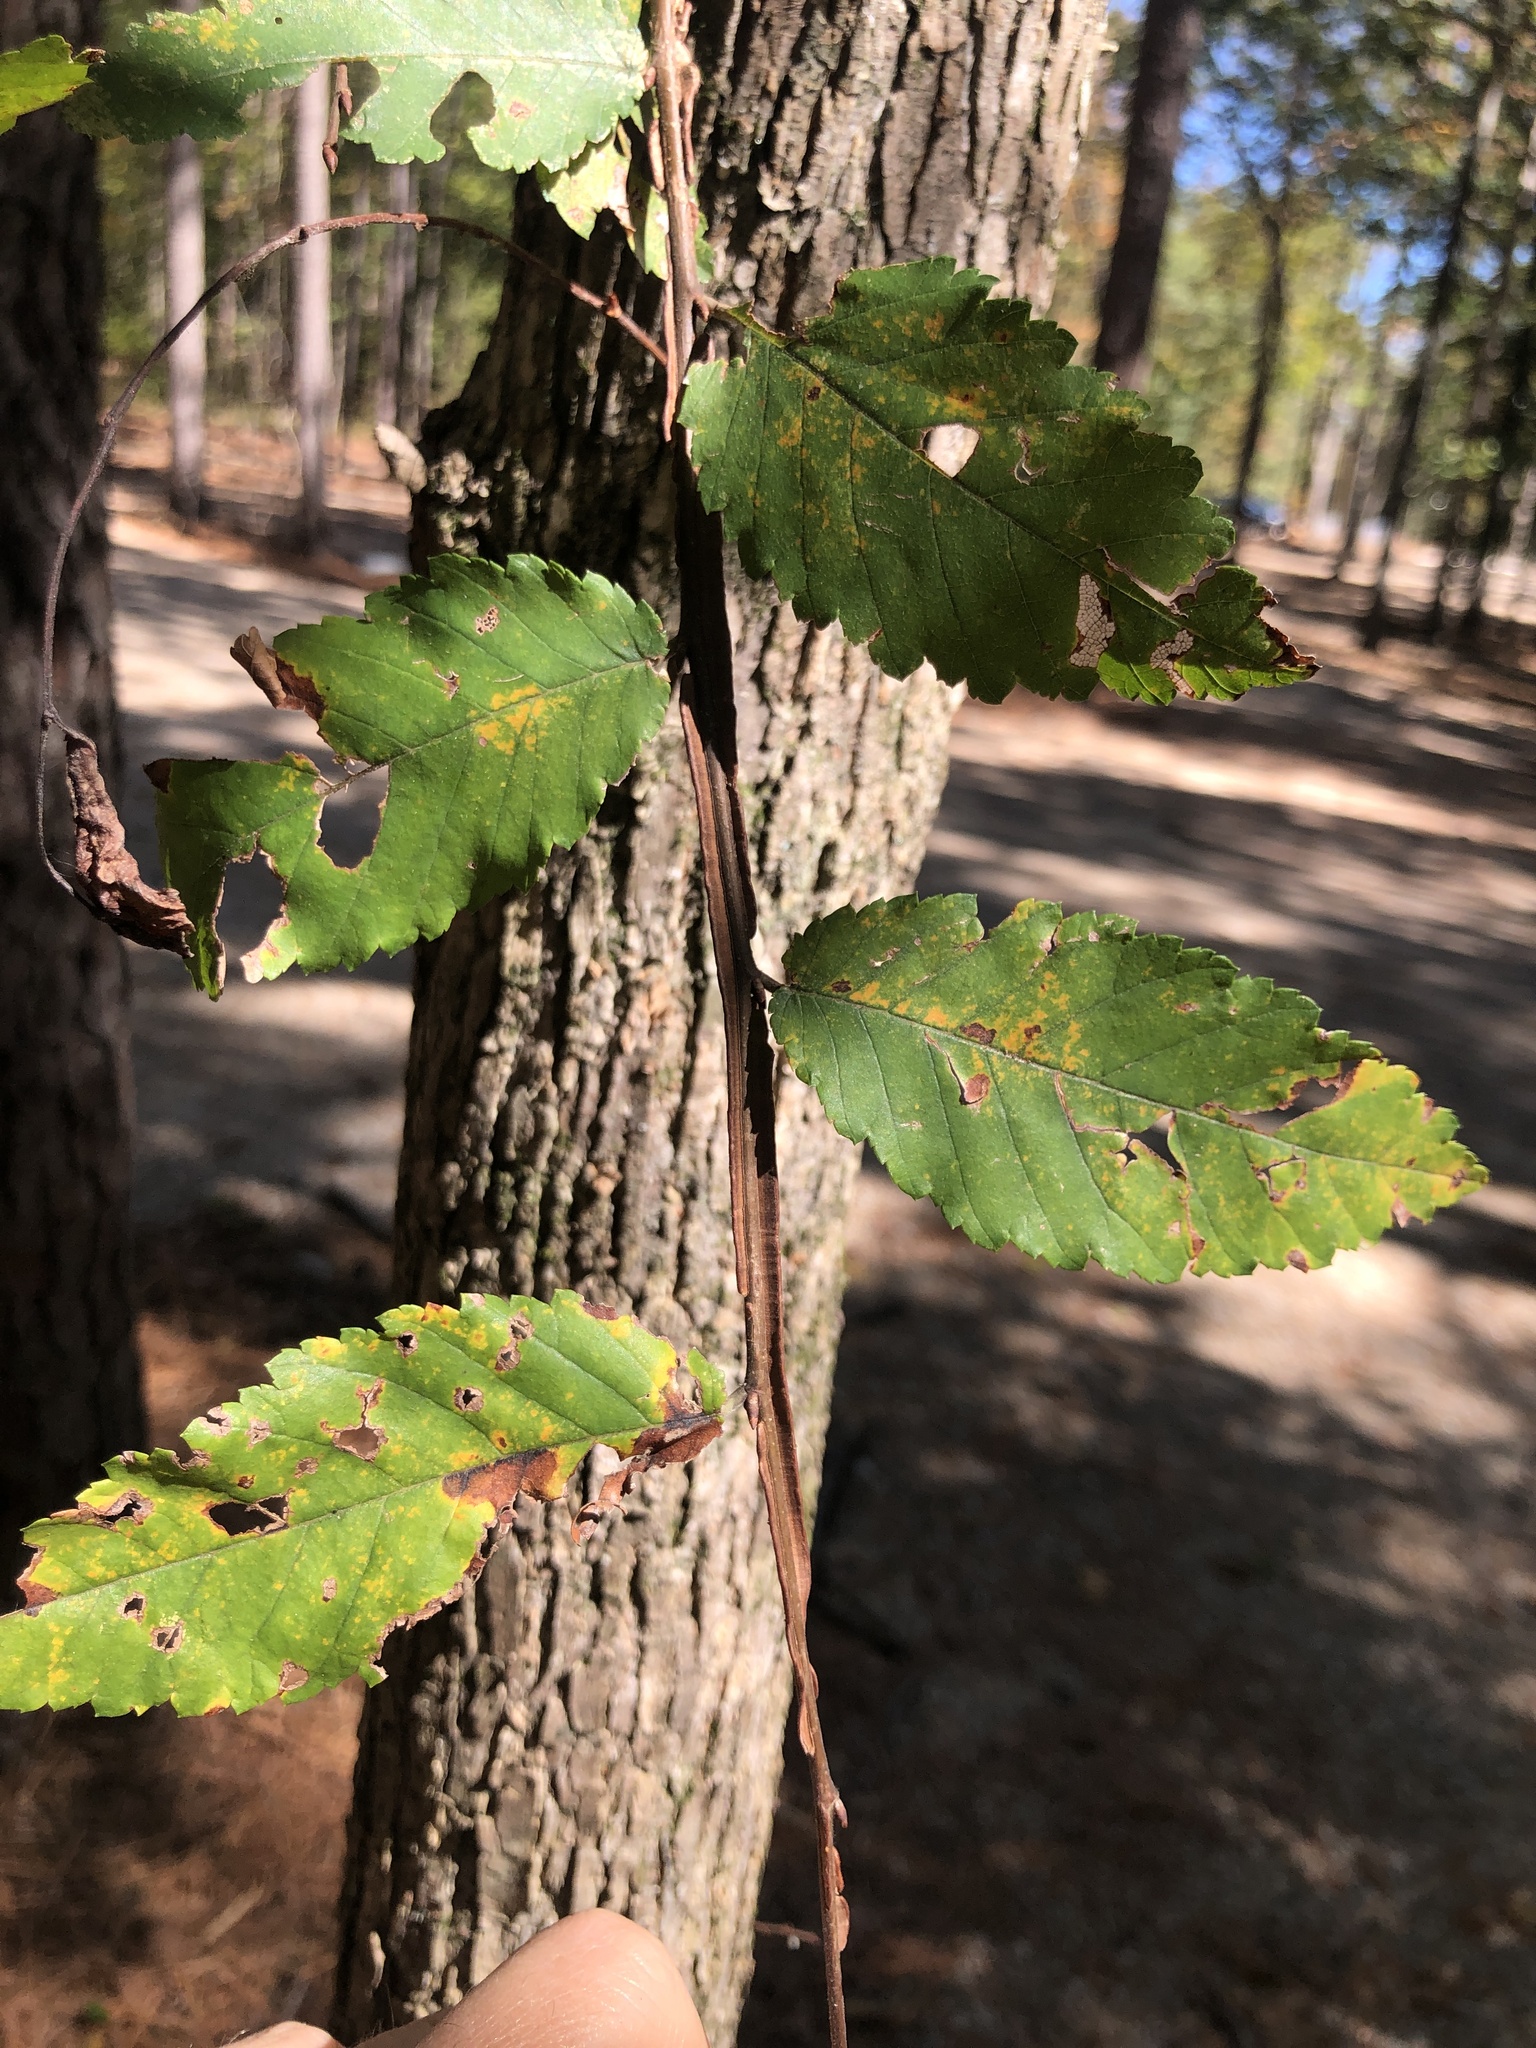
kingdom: Plantae
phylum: Tracheophyta
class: Magnoliopsida
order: Rosales
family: Ulmaceae
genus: Ulmus
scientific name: Ulmus alata
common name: Winged elm
